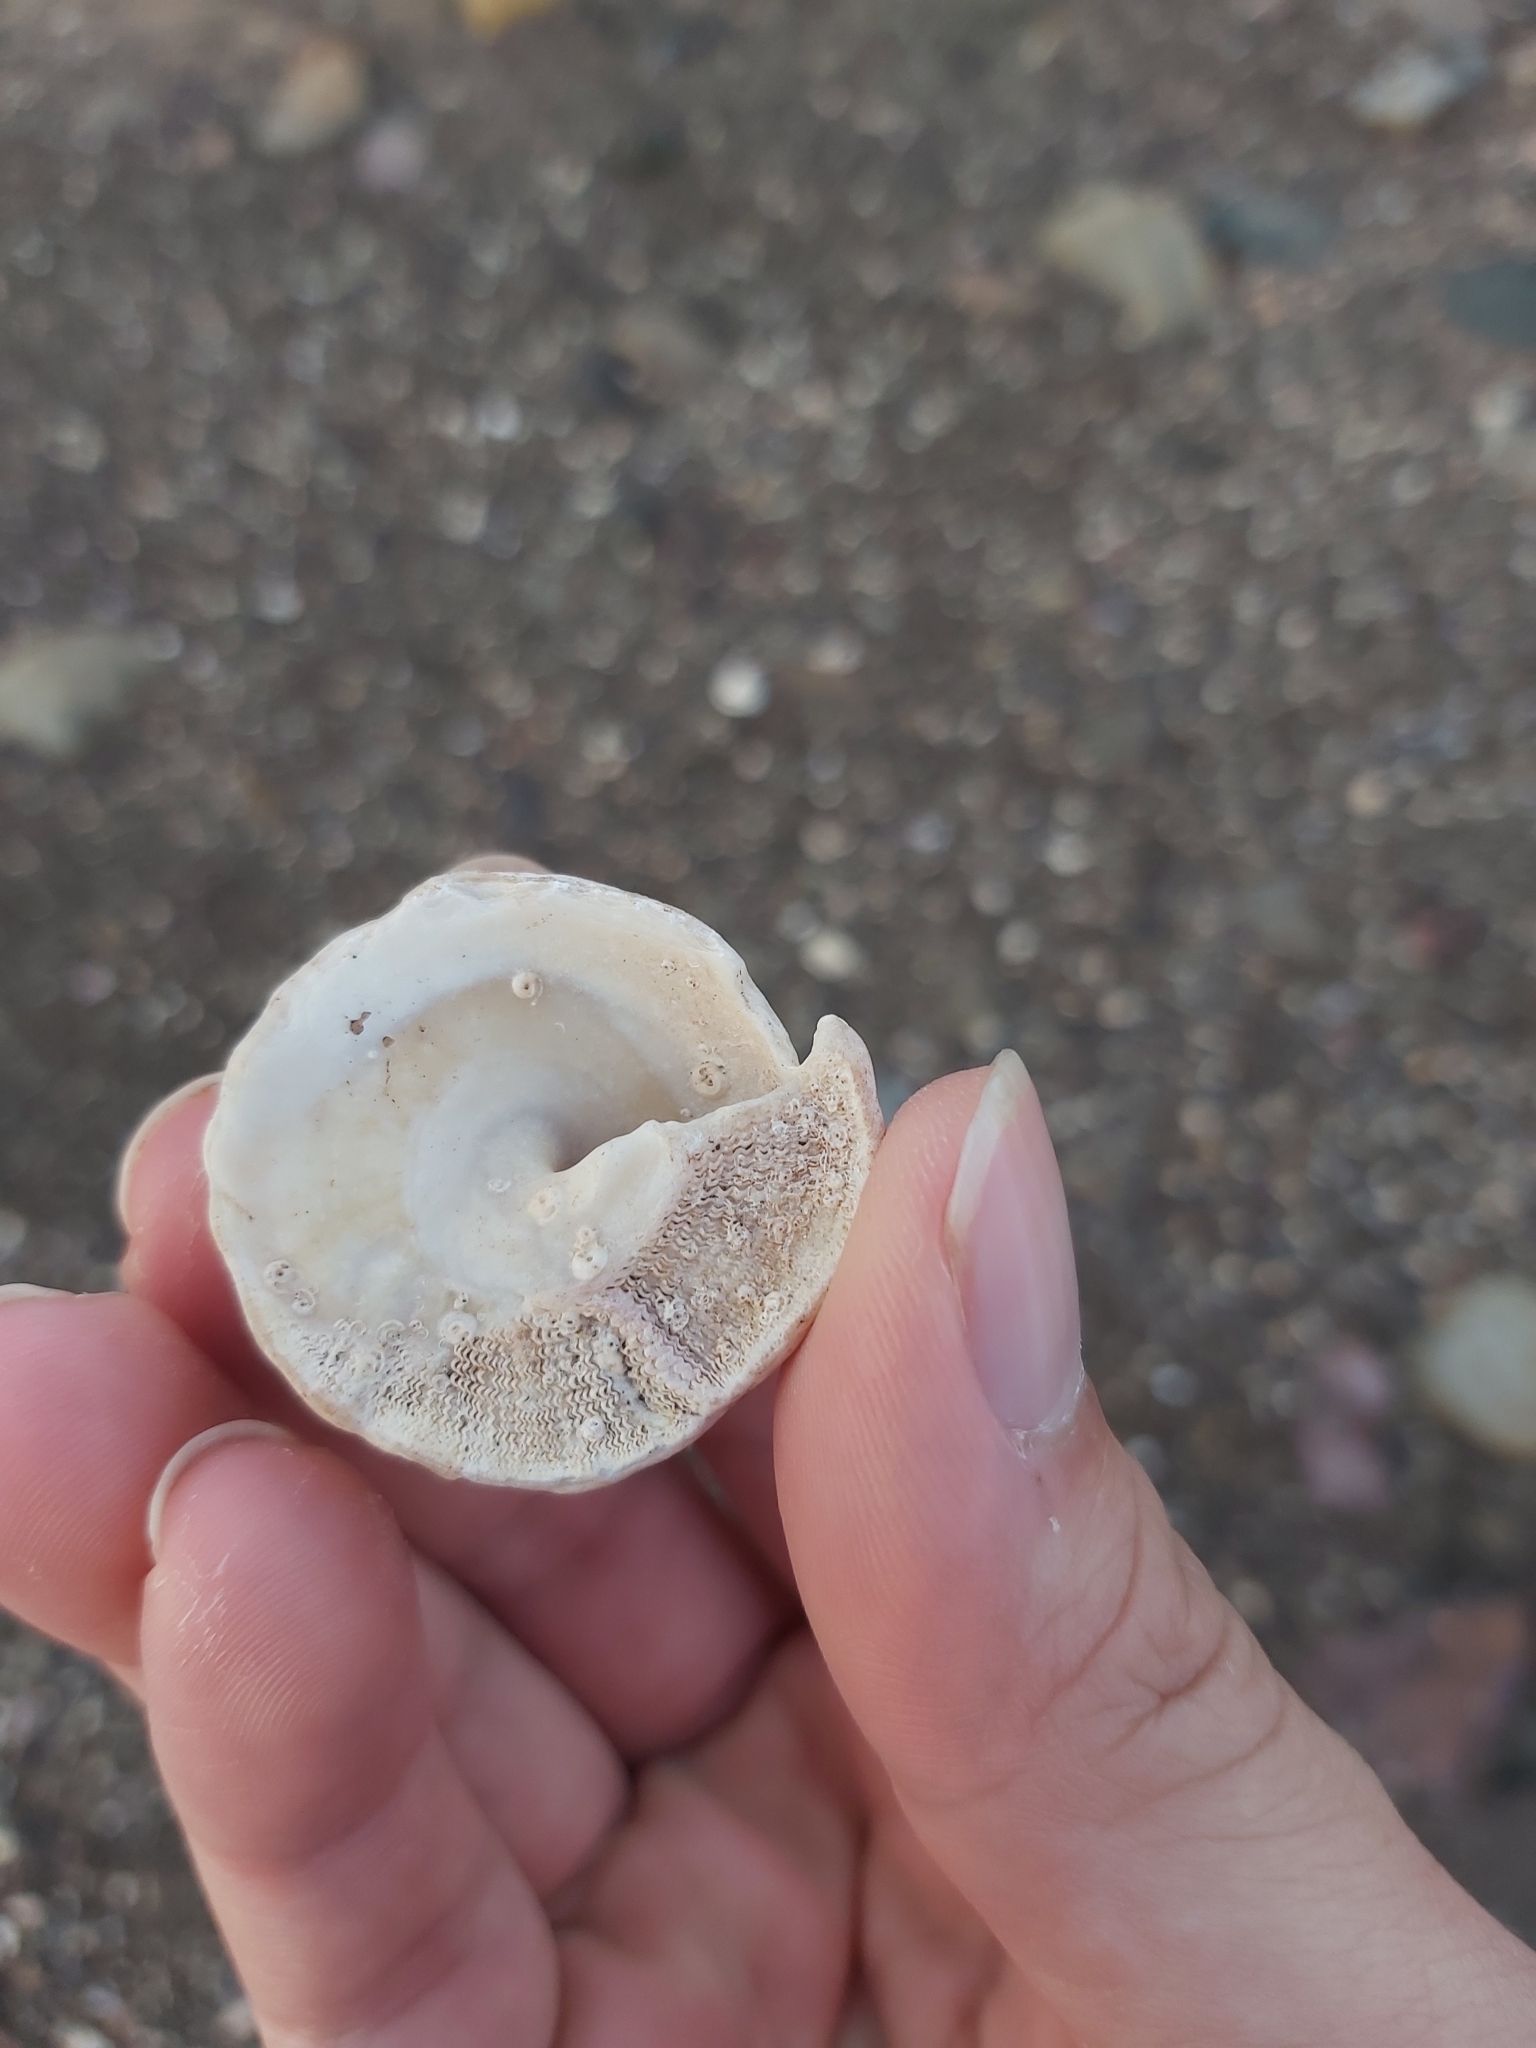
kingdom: Animalia
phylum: Mollusca
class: Gastropoda
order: Trochida
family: Turbinidae
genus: Astralium
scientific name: Astralium tentoriiforme
